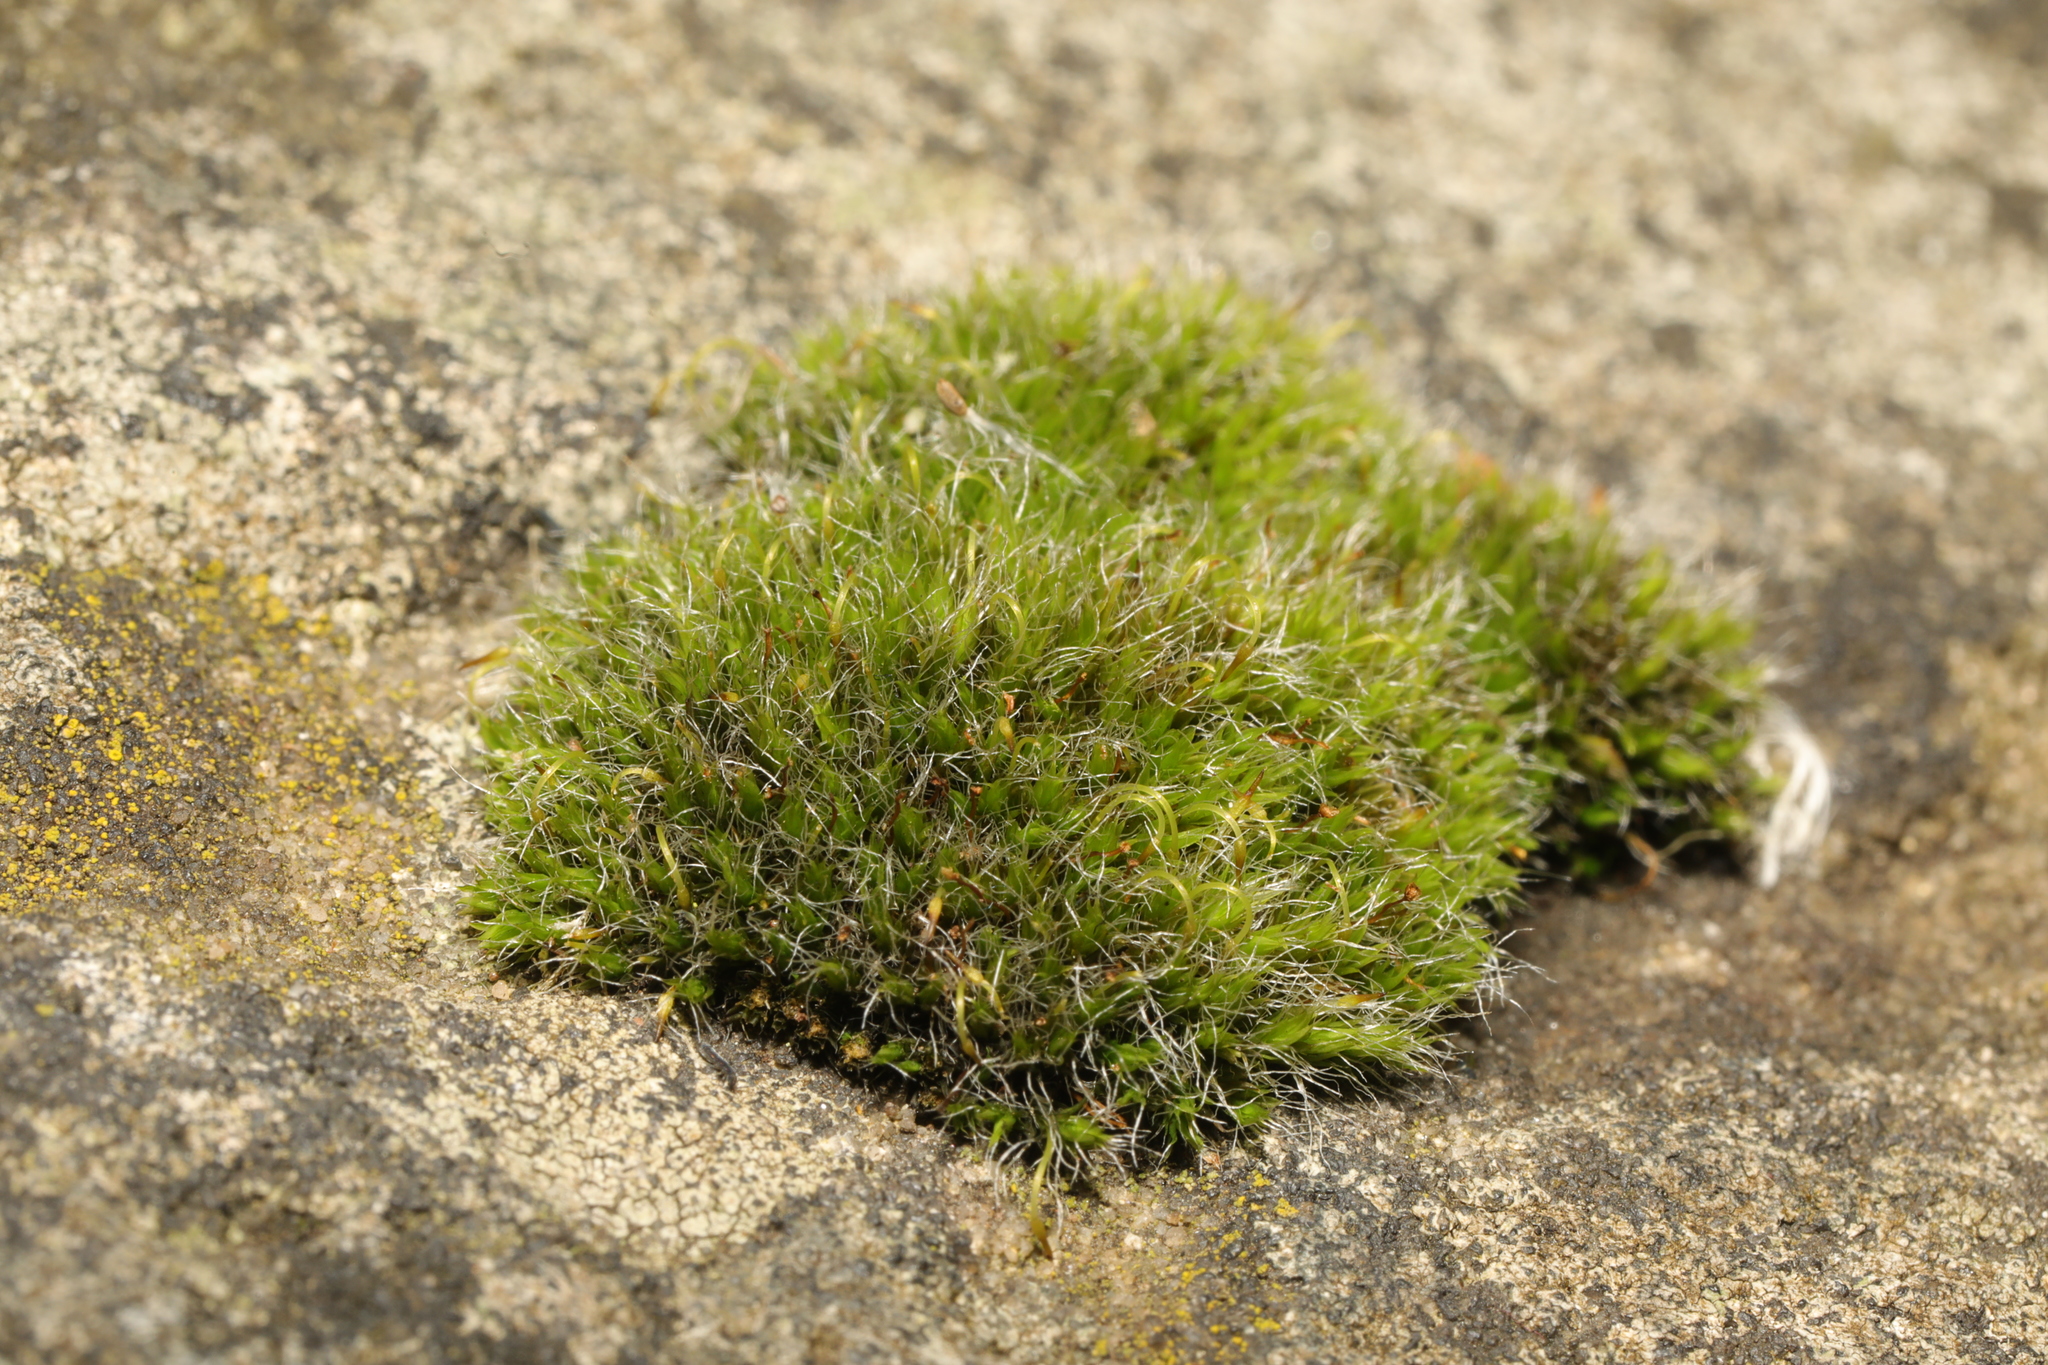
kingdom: Plantae
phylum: Bryophyta
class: Bryopsida
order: Grimmiales
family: Grimmiaceae
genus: Grimmia
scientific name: Grimmia pulvinata
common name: Grey-cushioned grimmia
